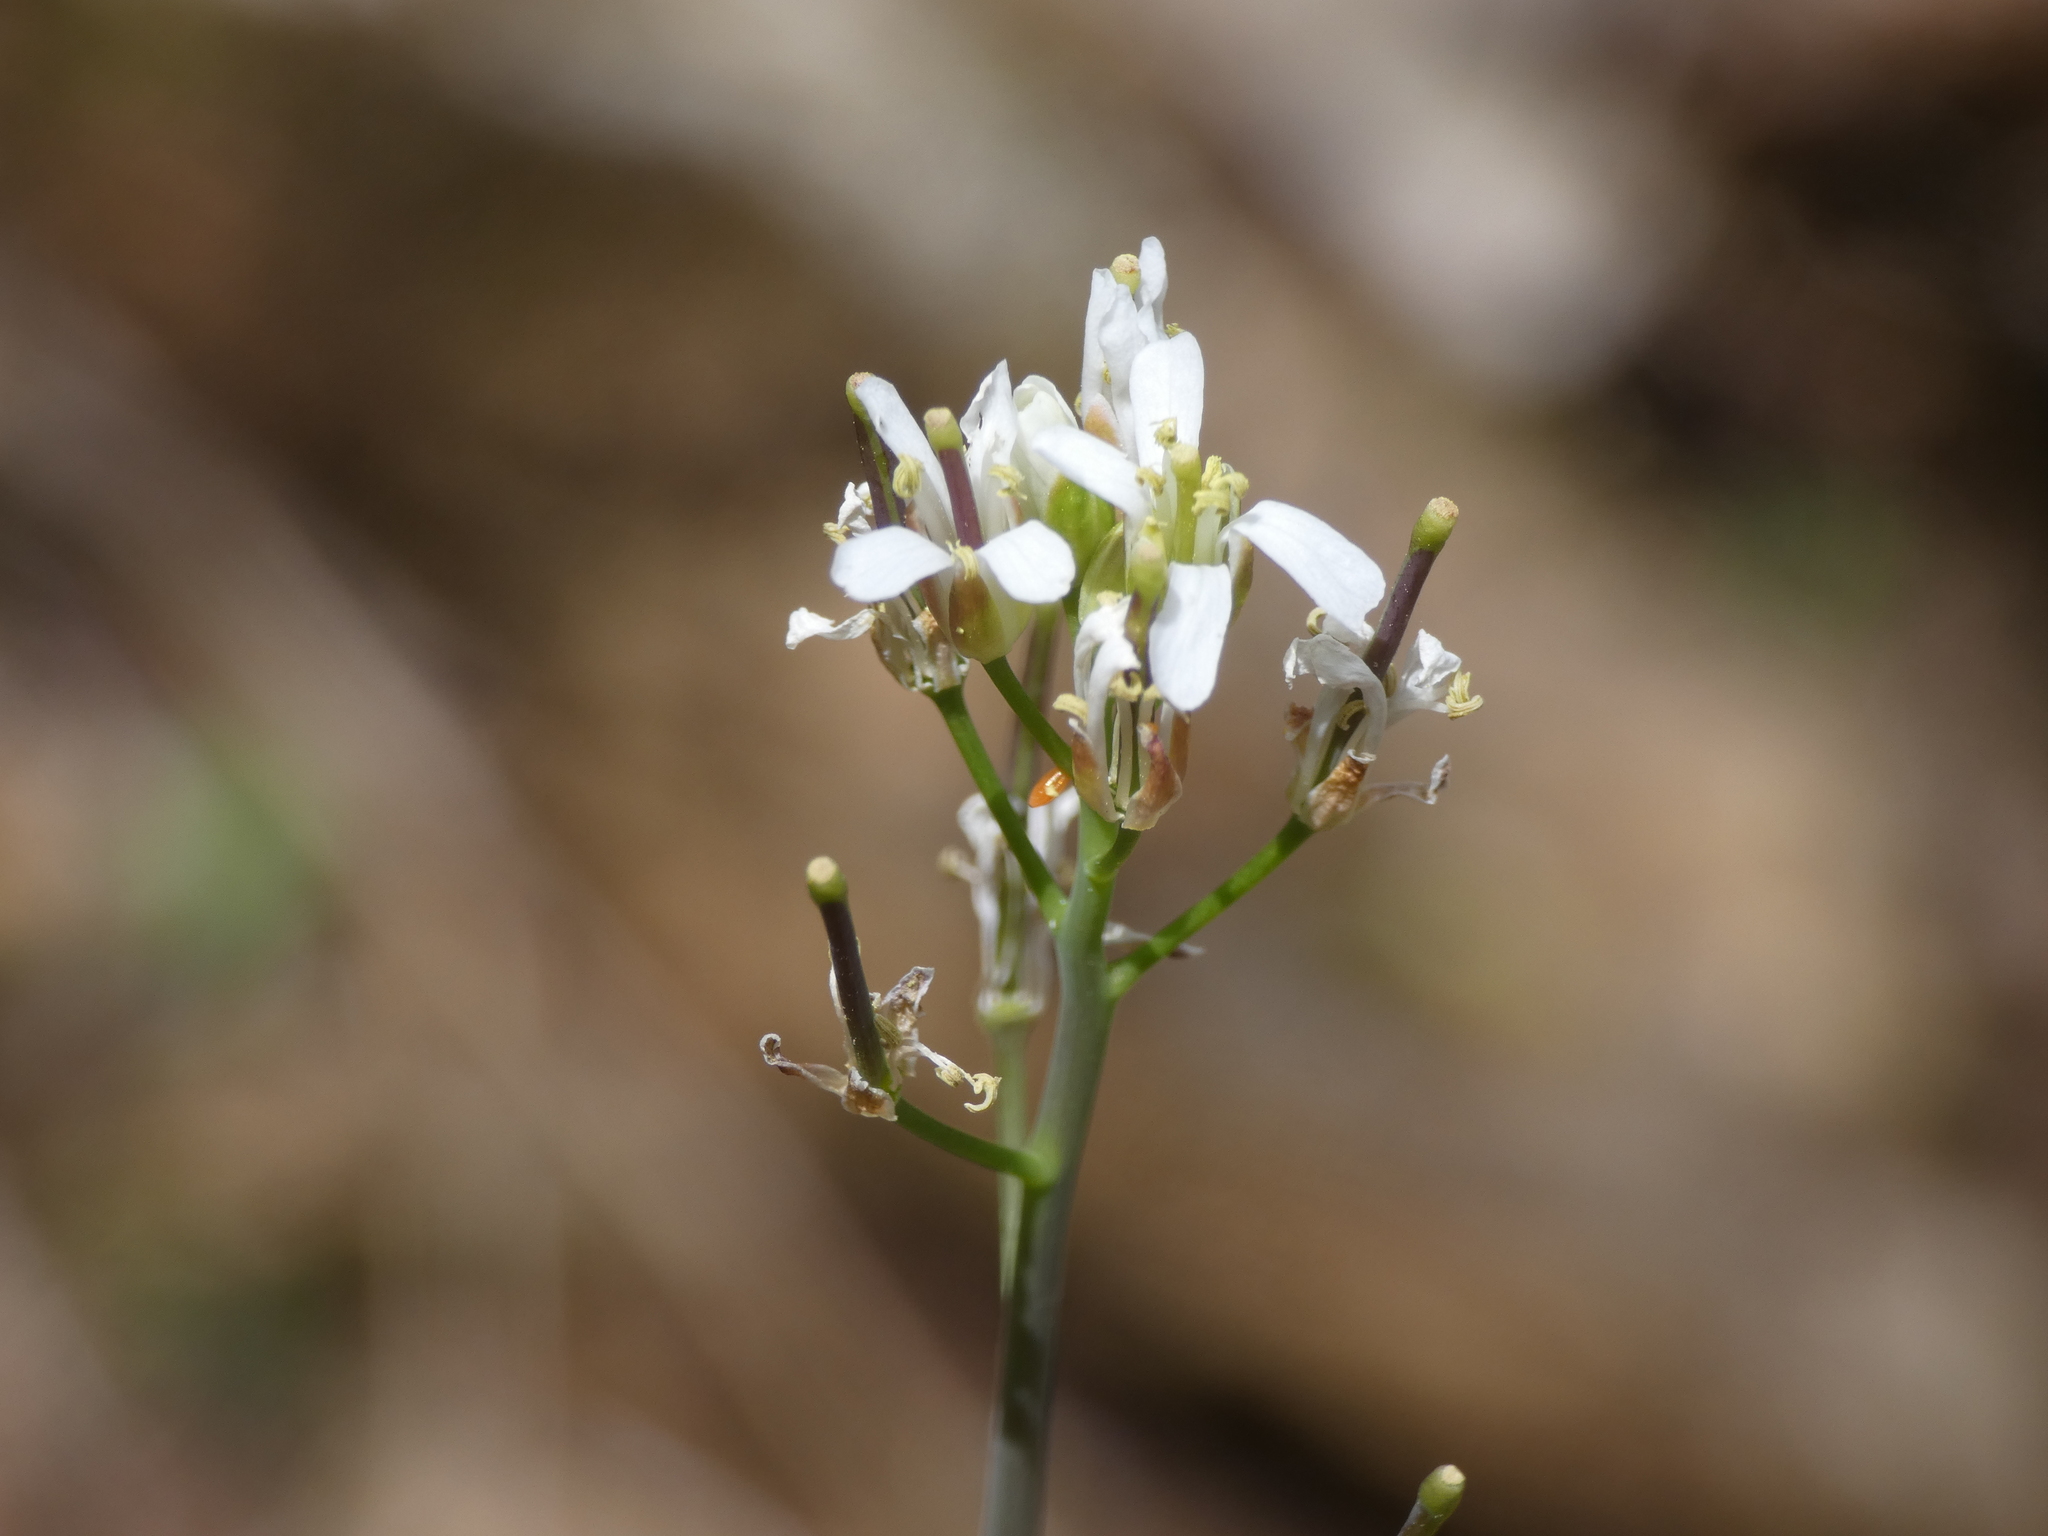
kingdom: Plantae
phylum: Tracheophyta
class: Magnoliopsida
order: Brassicales
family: Brassicaceae
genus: Fourraea
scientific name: Fourraea alpina
